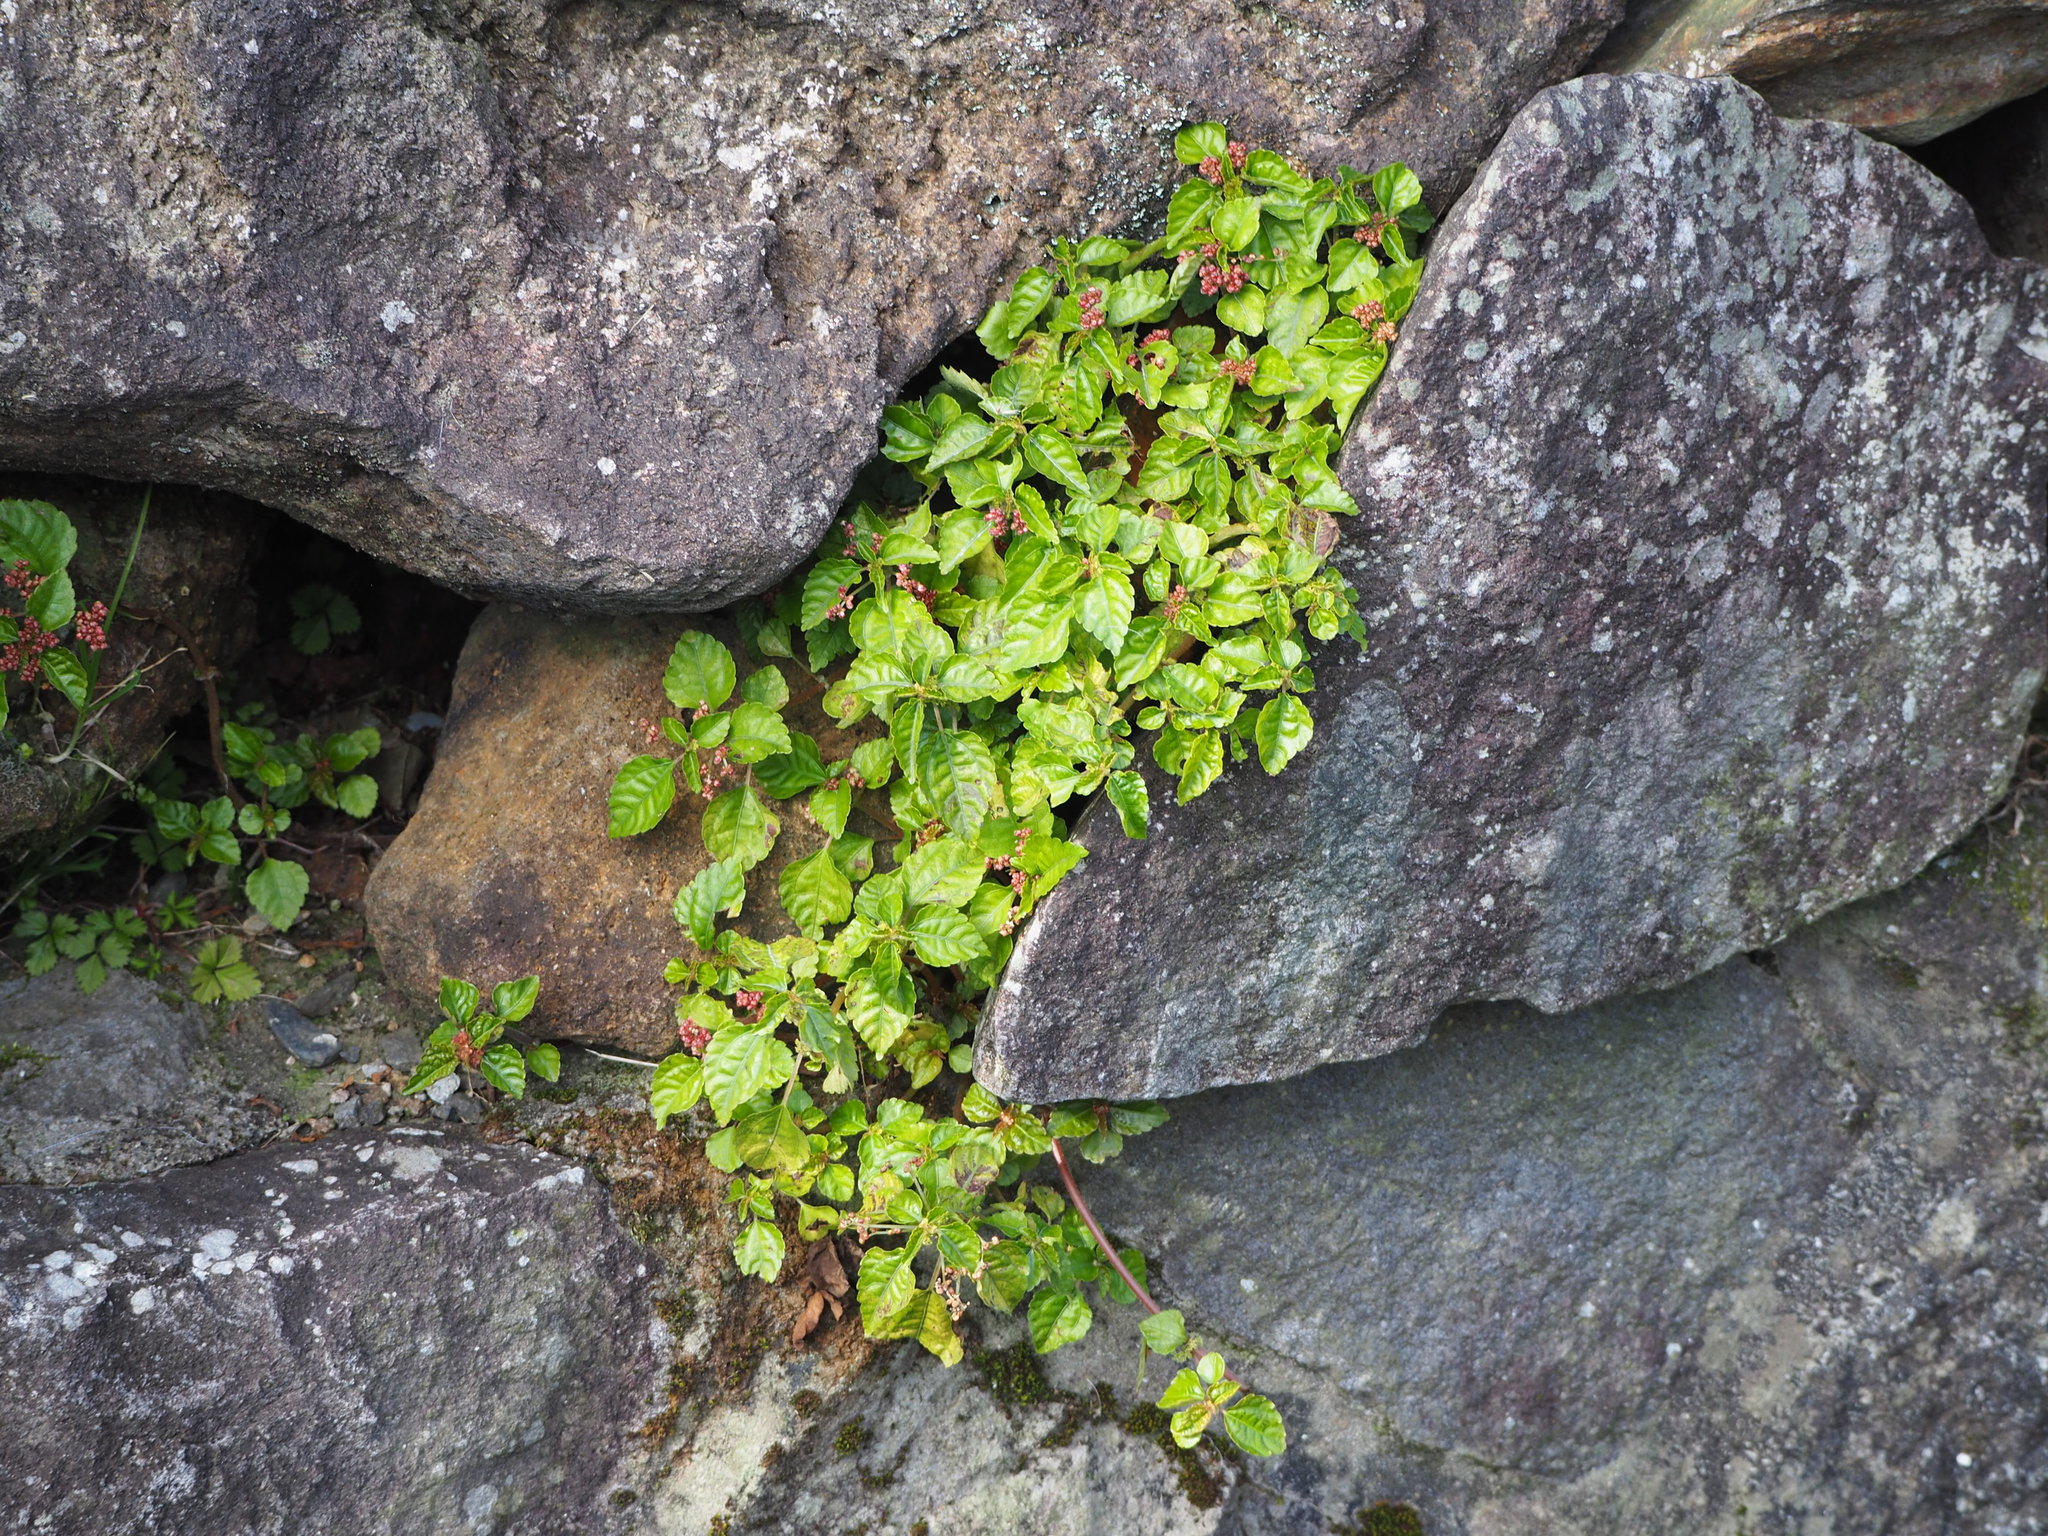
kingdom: Plantae
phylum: Tracheophyta
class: Magnoliopsida
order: Rosales
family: Urticaceae
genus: Pilea
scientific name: Pilea aquarum
